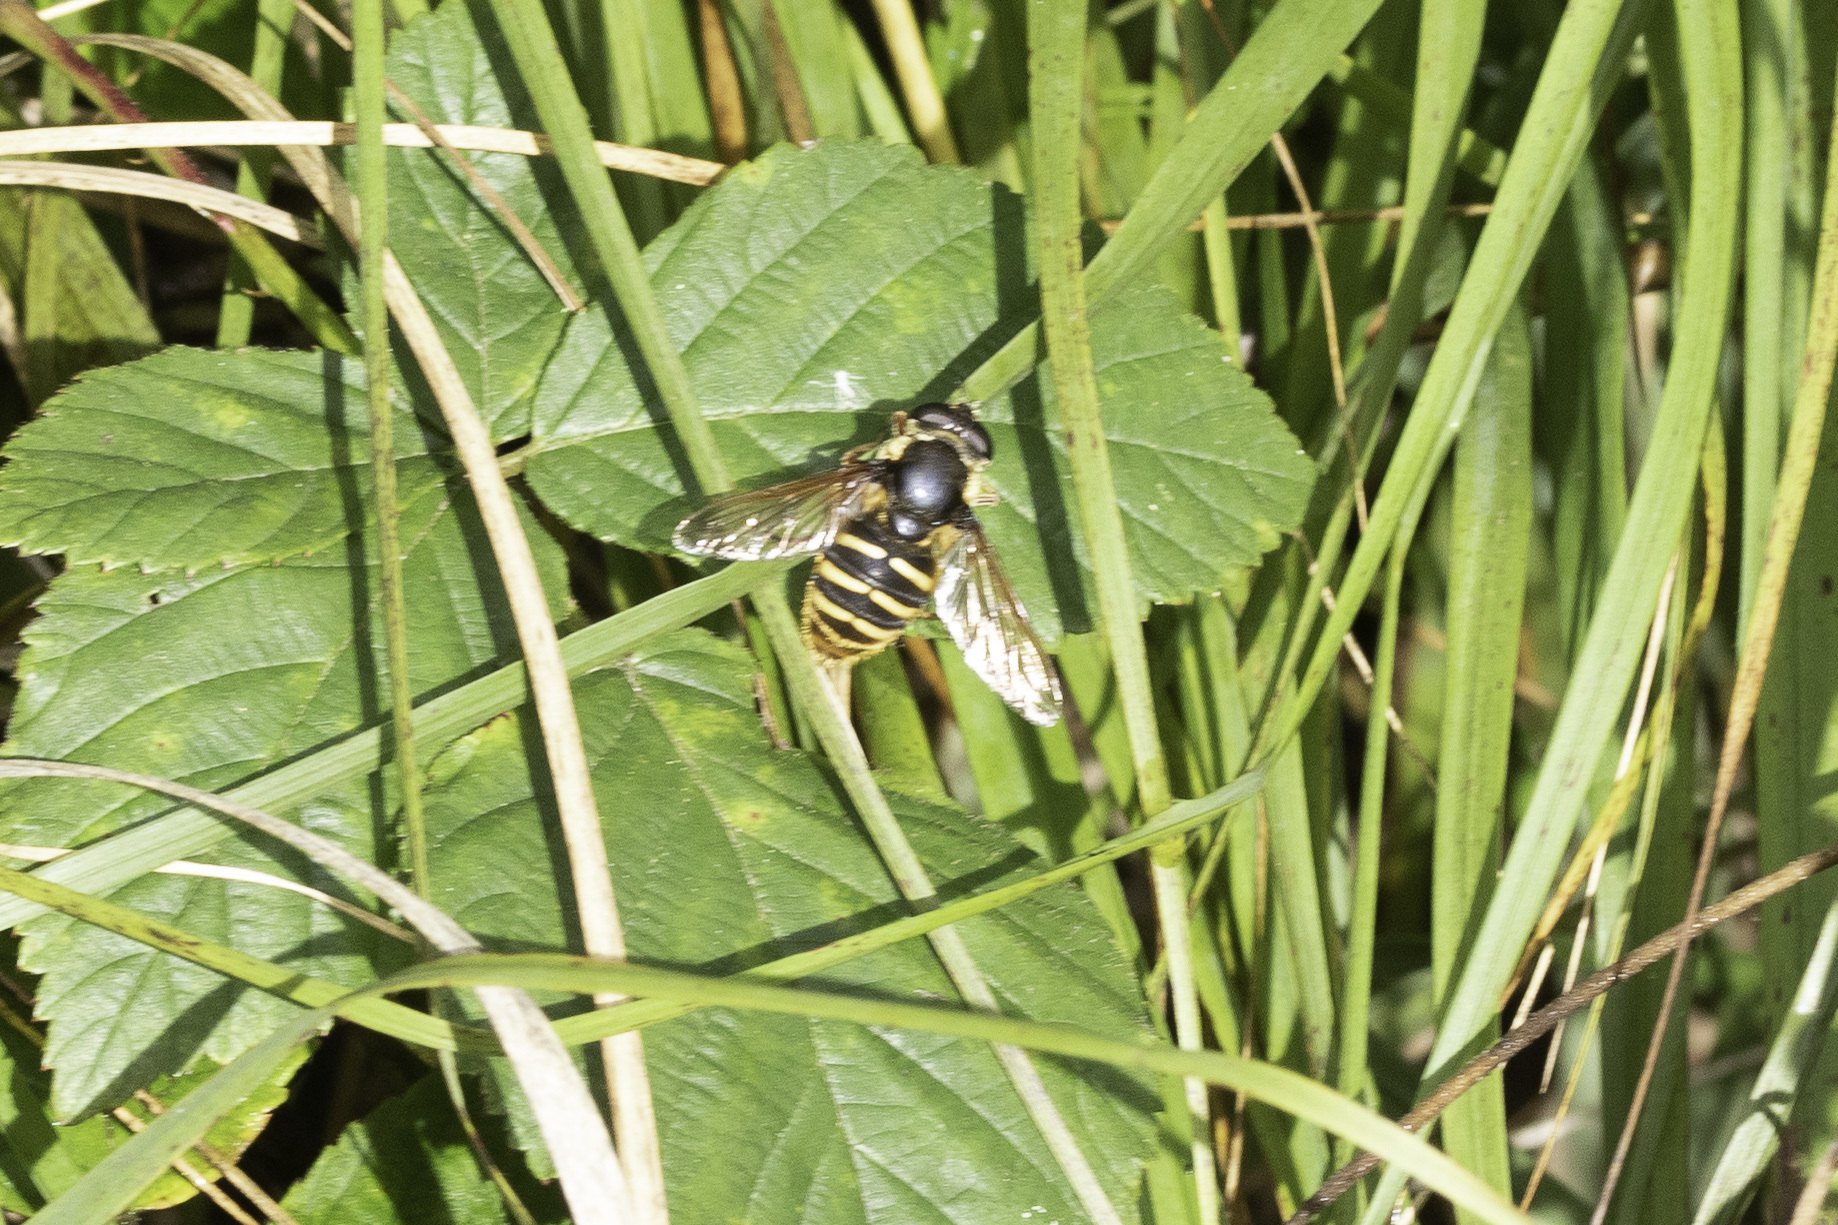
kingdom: Animalia
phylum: Arthropoda
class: Insecta
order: Diptera
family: Syrphidae
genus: Sericomyia
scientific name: Sericomyia silentis
